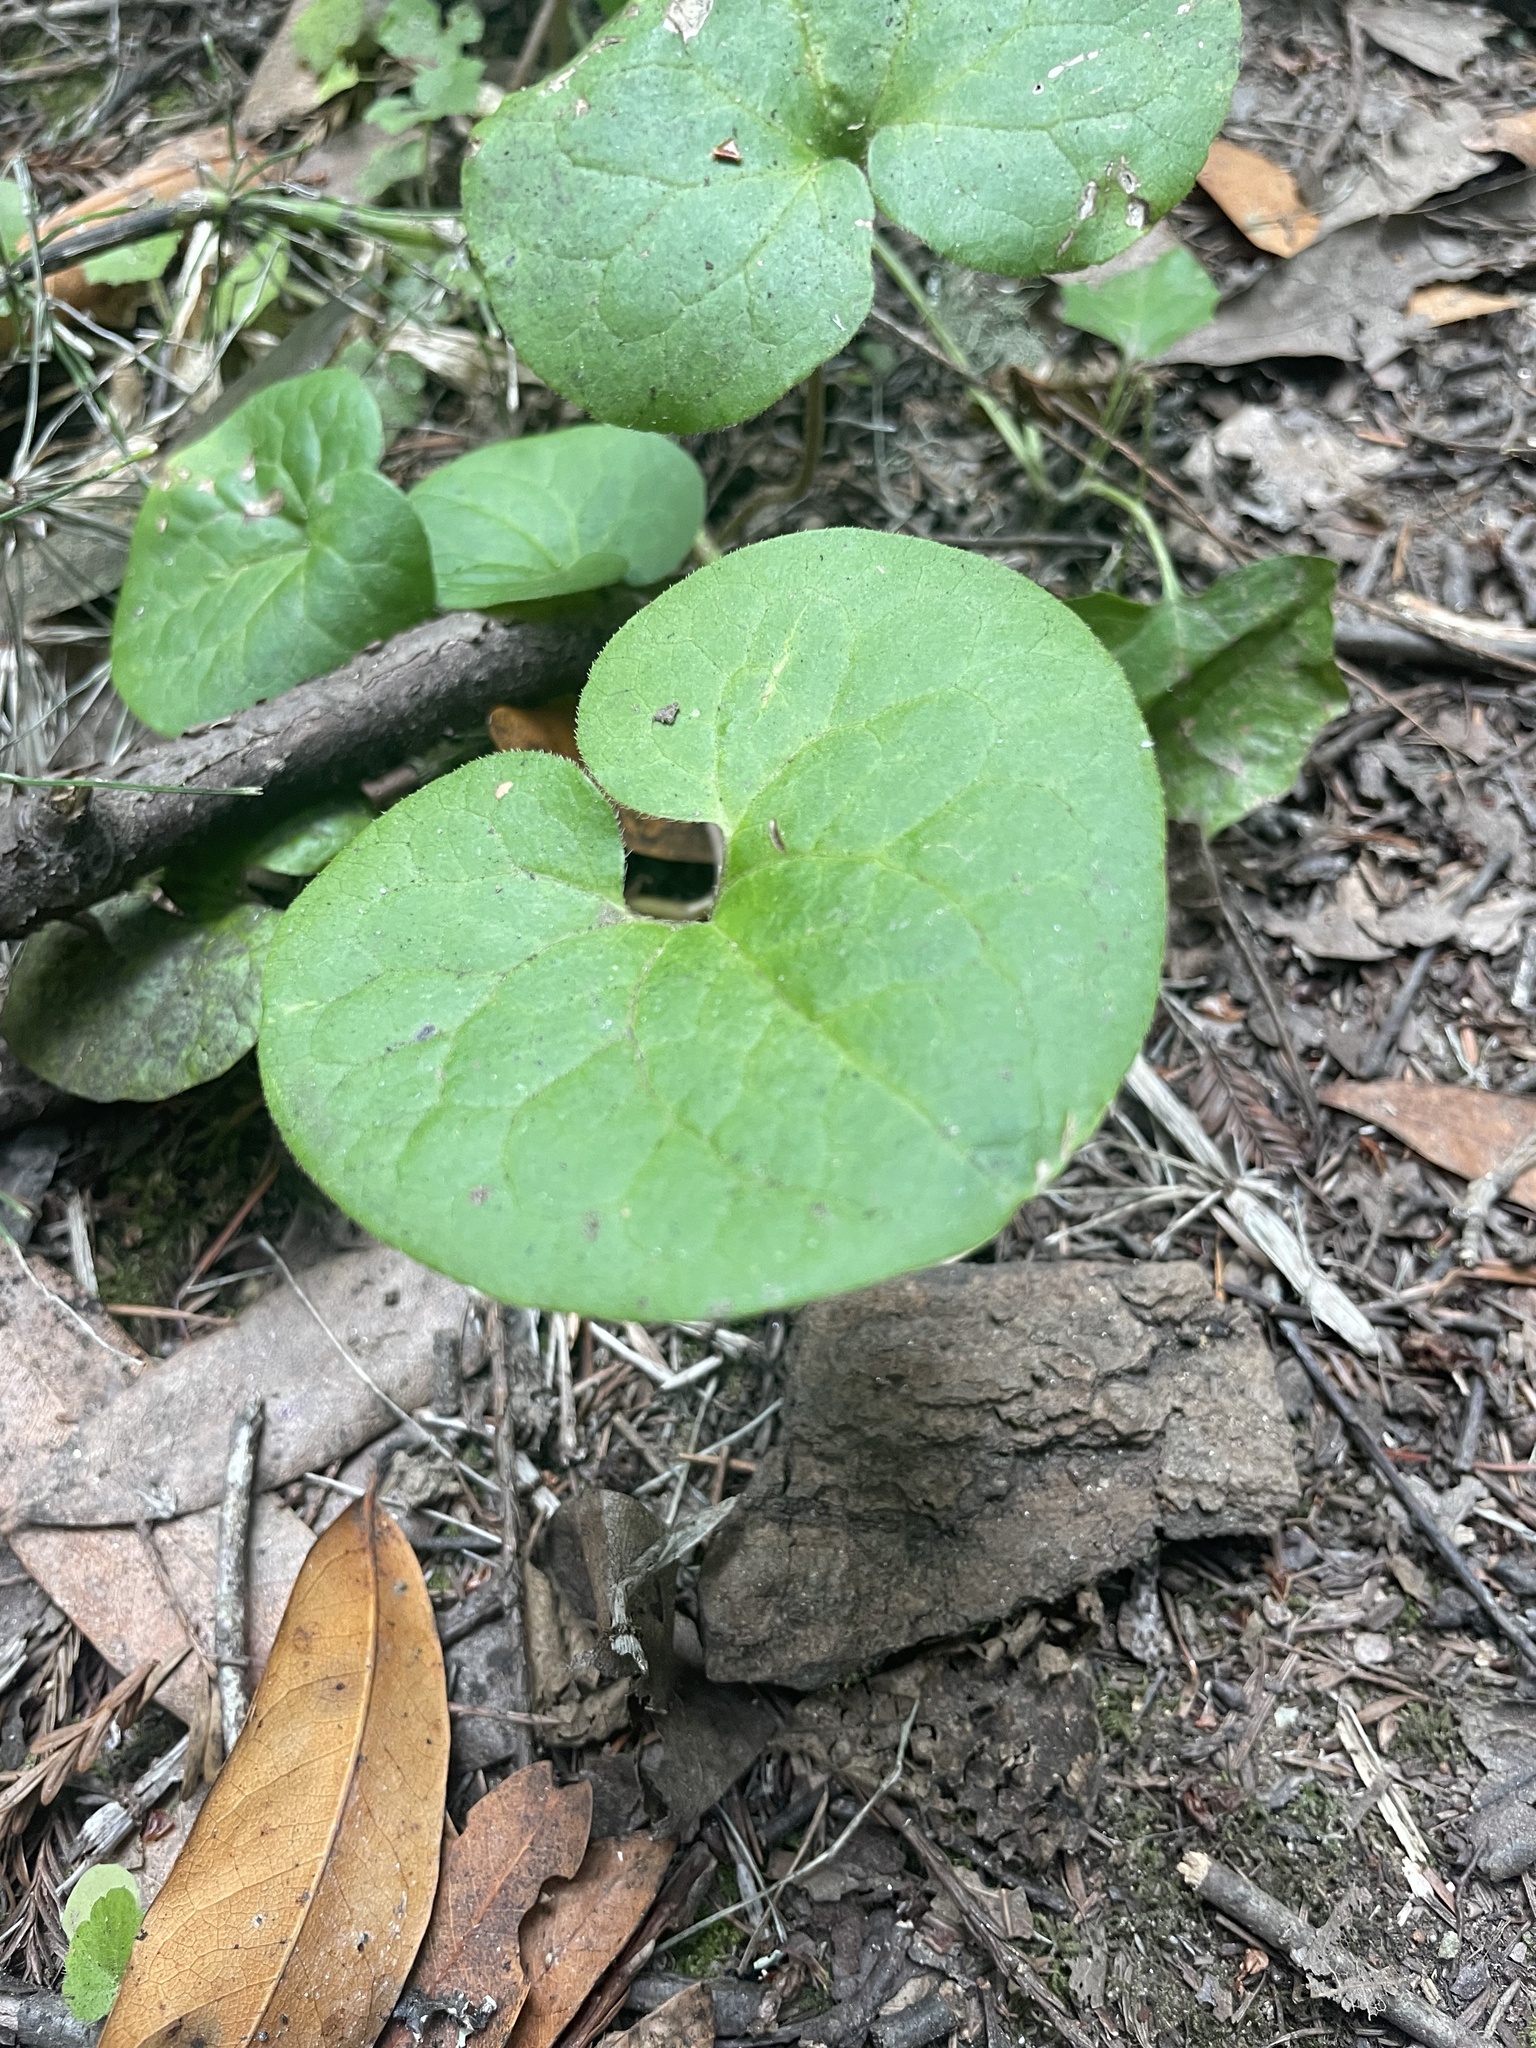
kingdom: Plantae
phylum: Tracheophyta
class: Magnoliopsida
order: Piperales
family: Aristolochiaceae
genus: Asarum
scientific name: Asarum caudatum
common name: Wild ginger
